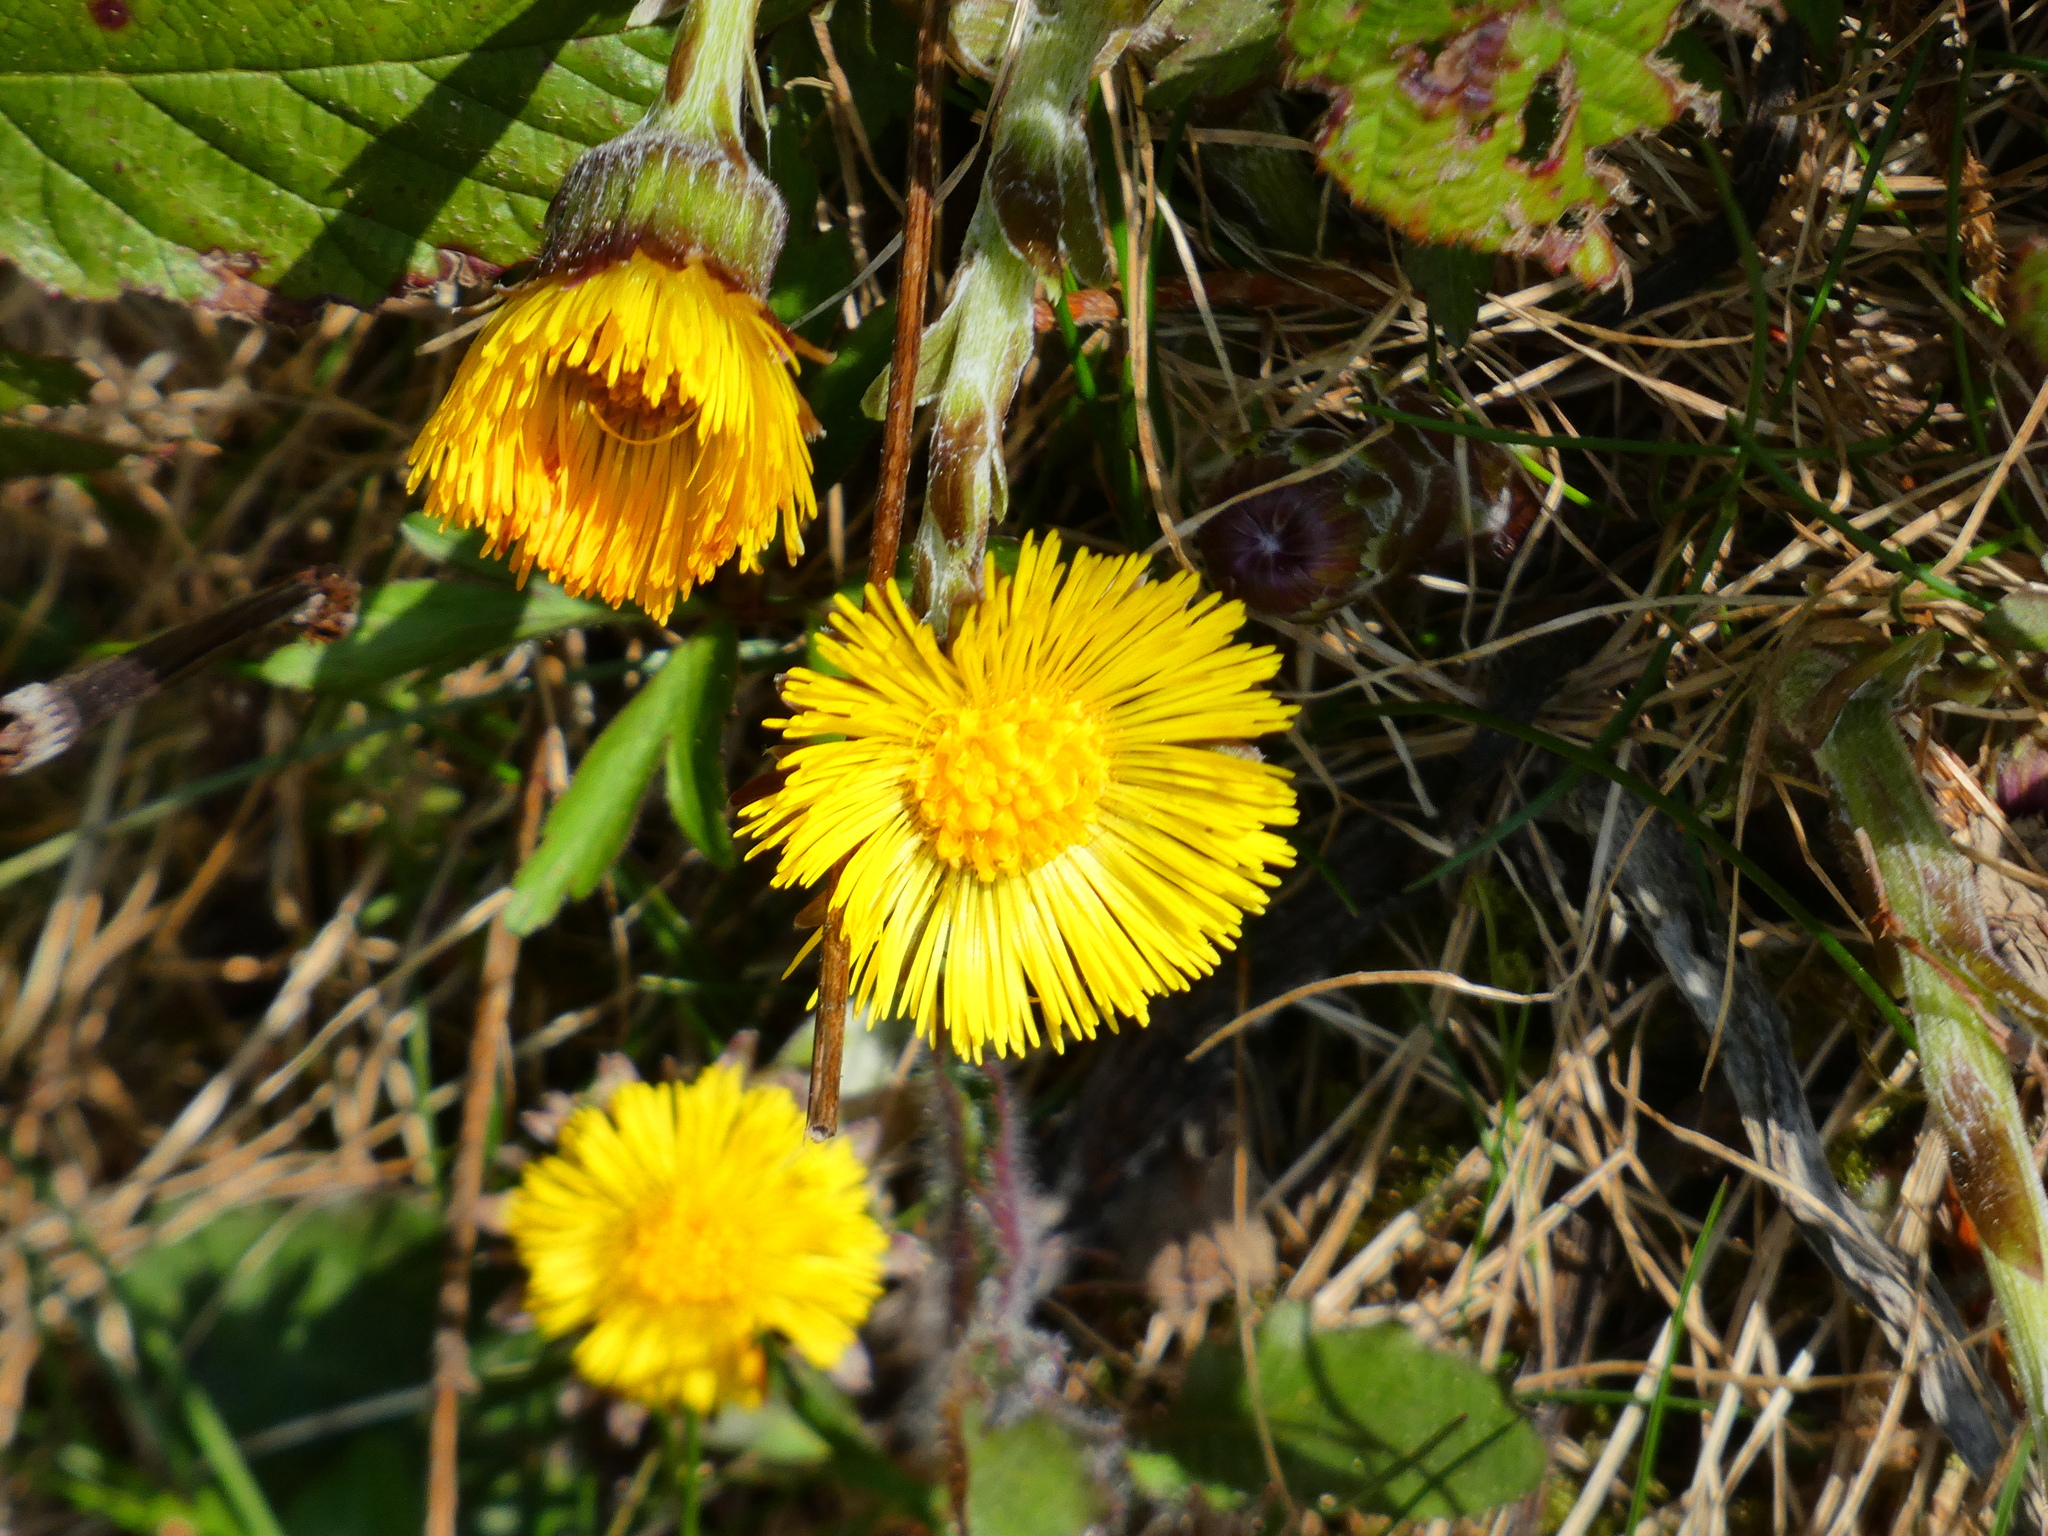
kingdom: Plantae
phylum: Tracheophyta
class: Magnoliopsida
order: Asterales
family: Asteraceae
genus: Tussilago
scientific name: Tussilago farfara
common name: Coltsfoot
